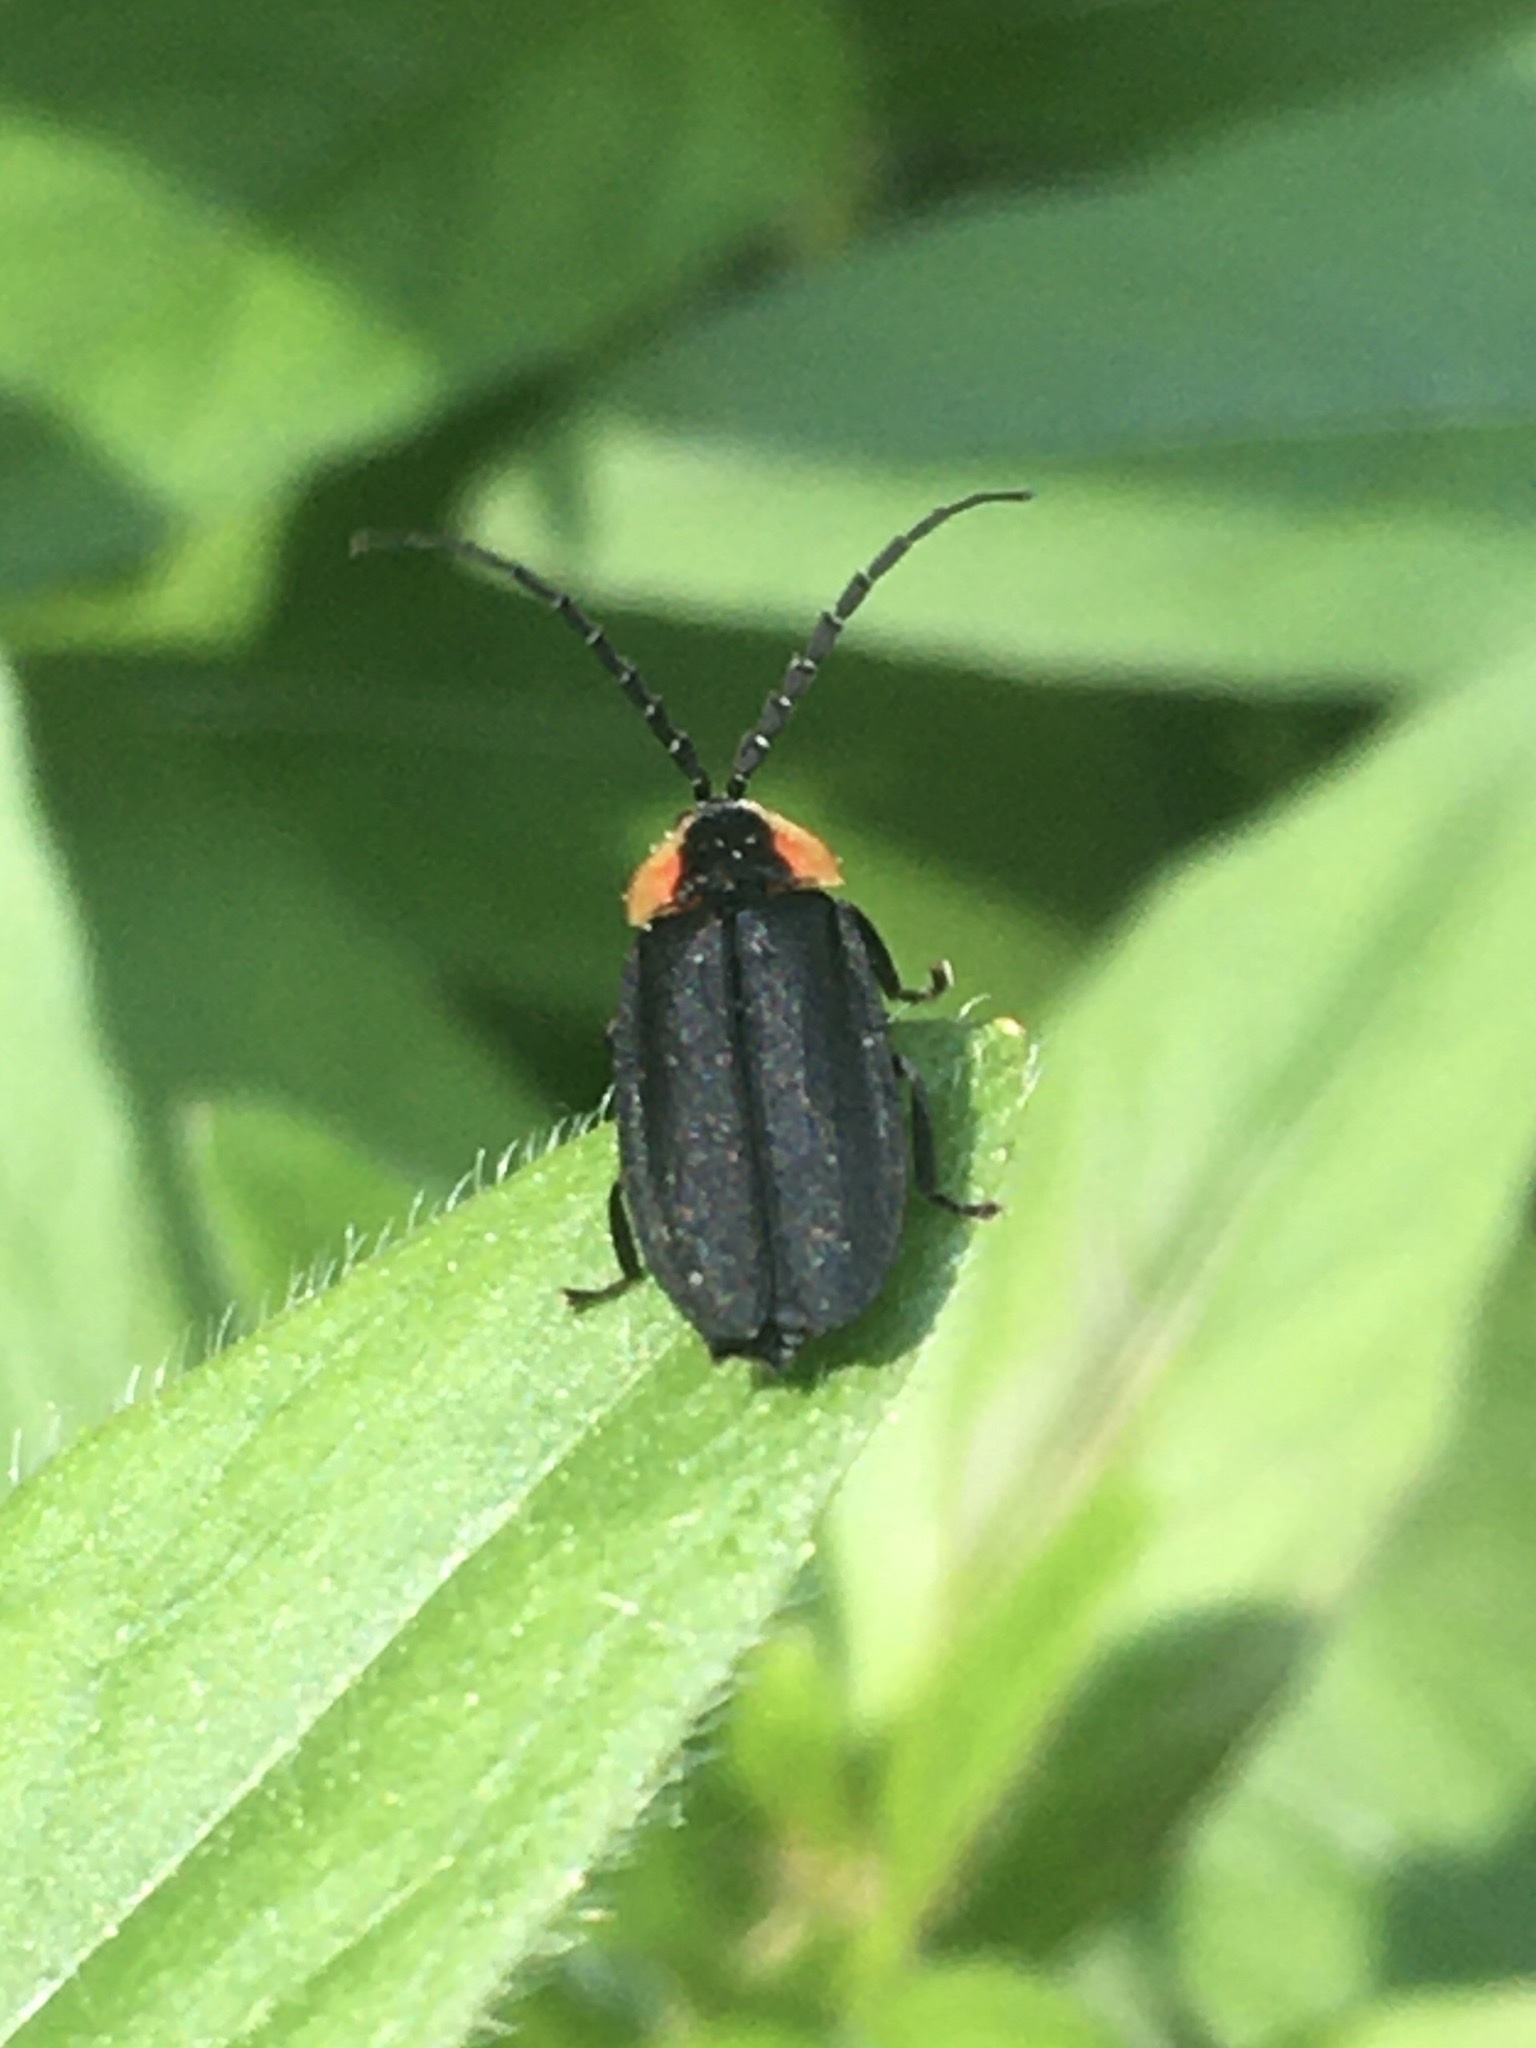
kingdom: Animalia
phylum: Arthropoda
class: Insecta
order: Coleoptera
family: Lampyridae
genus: Lucidota
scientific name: Lucidota atra
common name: Black firefly
